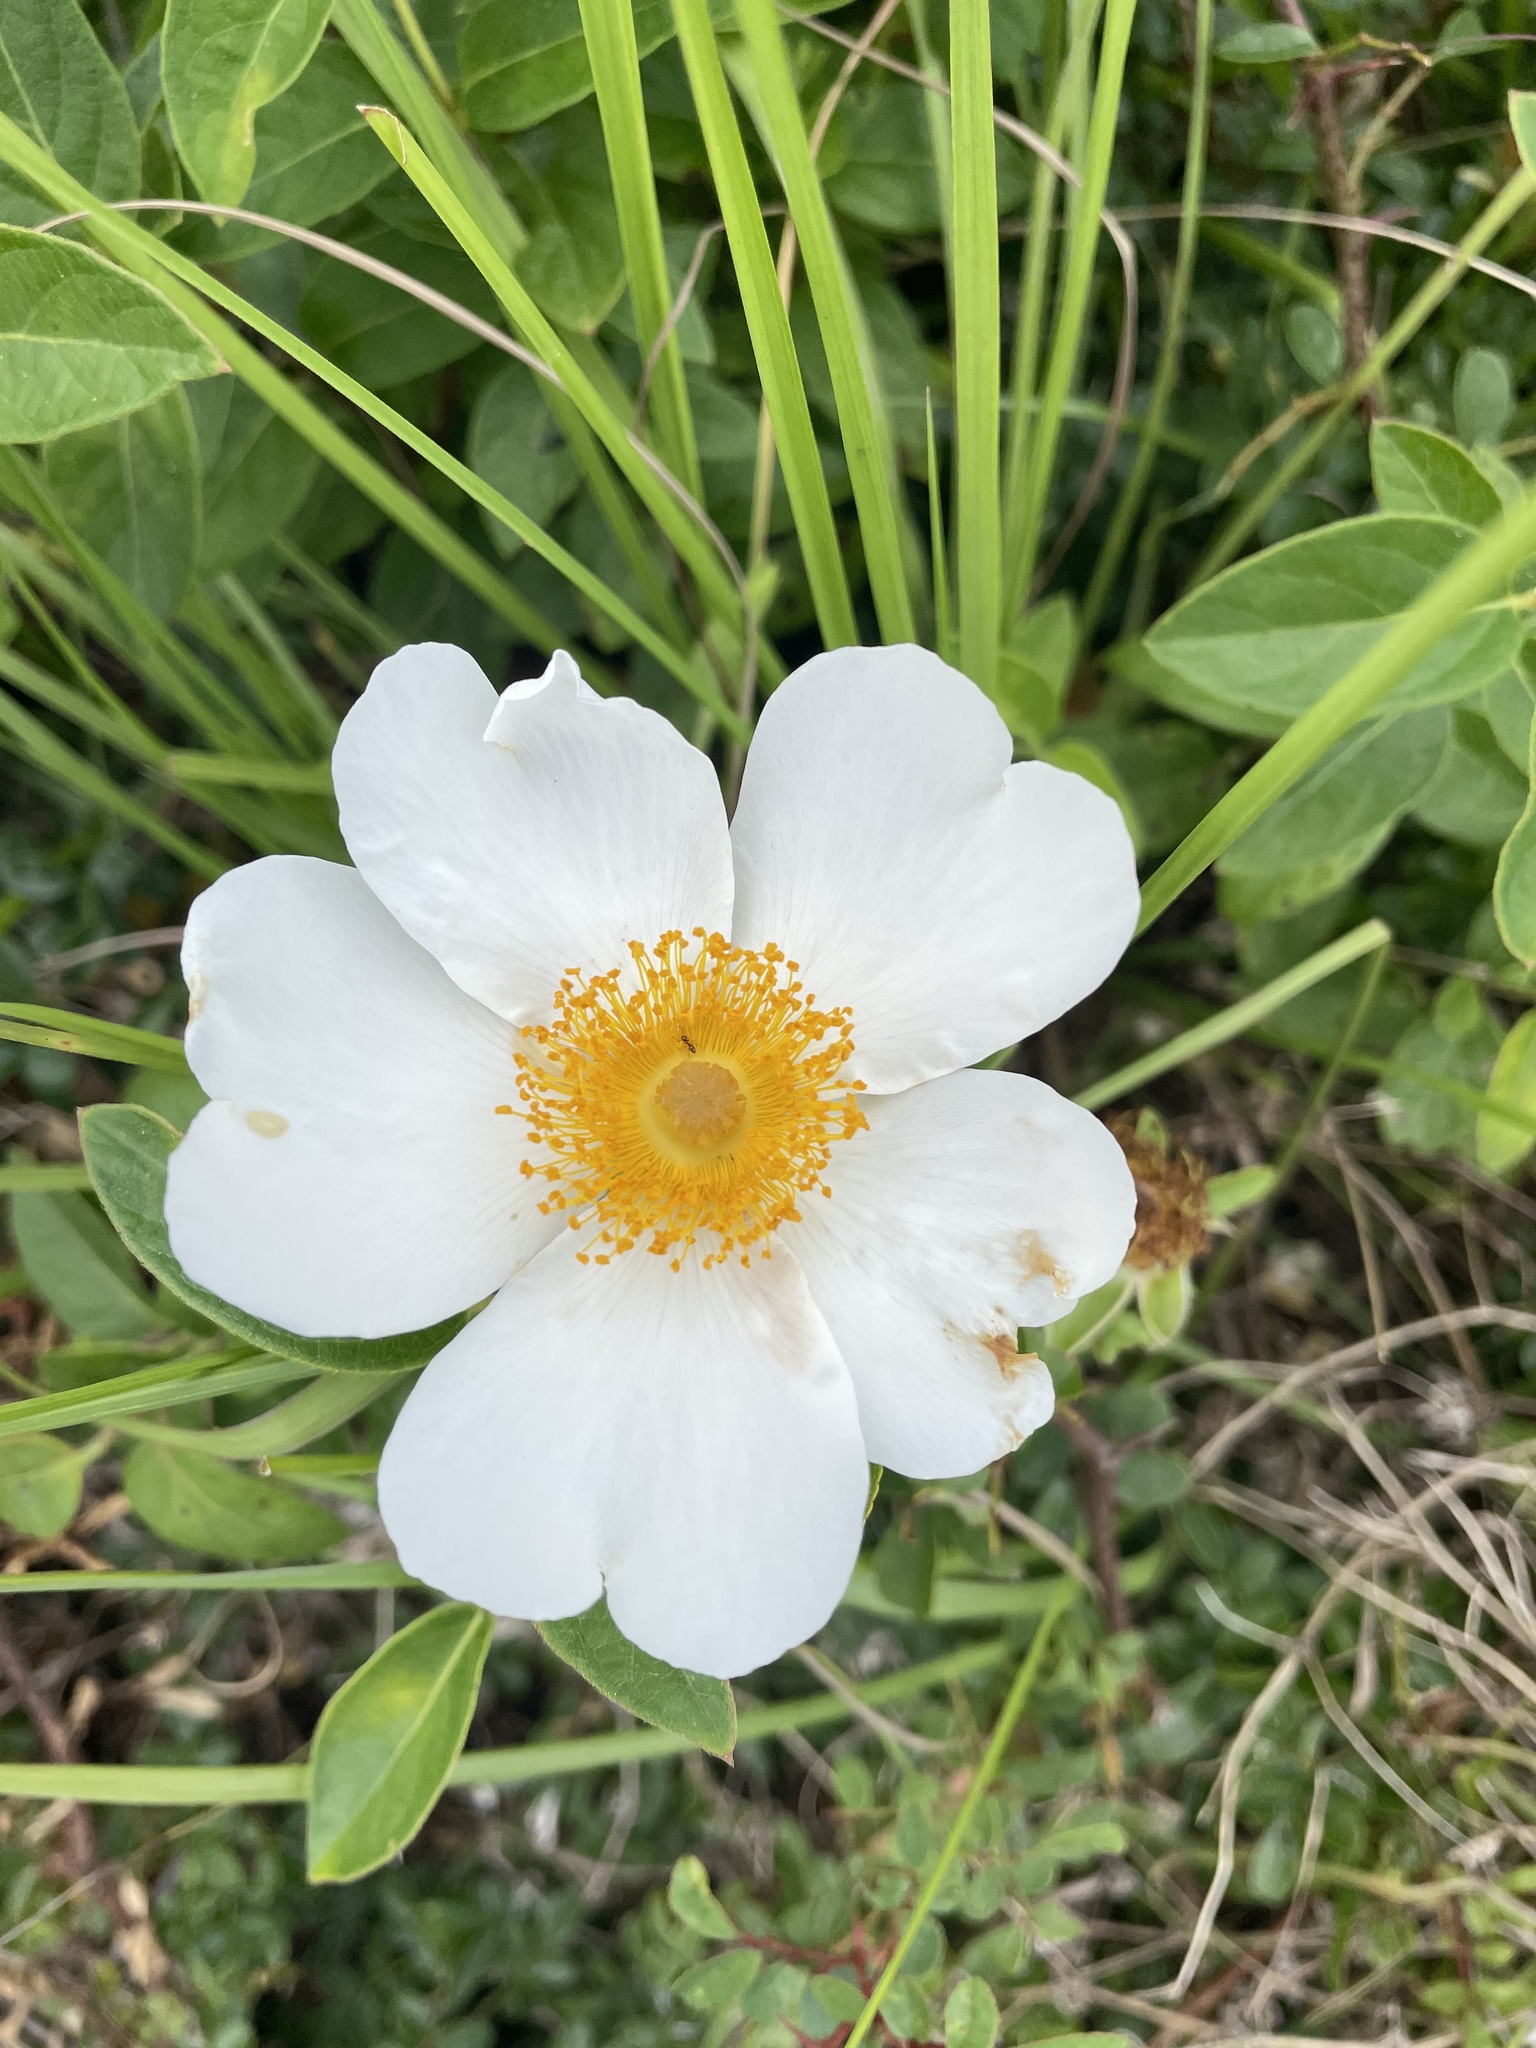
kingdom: Plantae
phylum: Tracheophyta
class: Magnoliopsida
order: Rosales
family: Rosaceae
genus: Rosa
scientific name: Rosa bracteata
